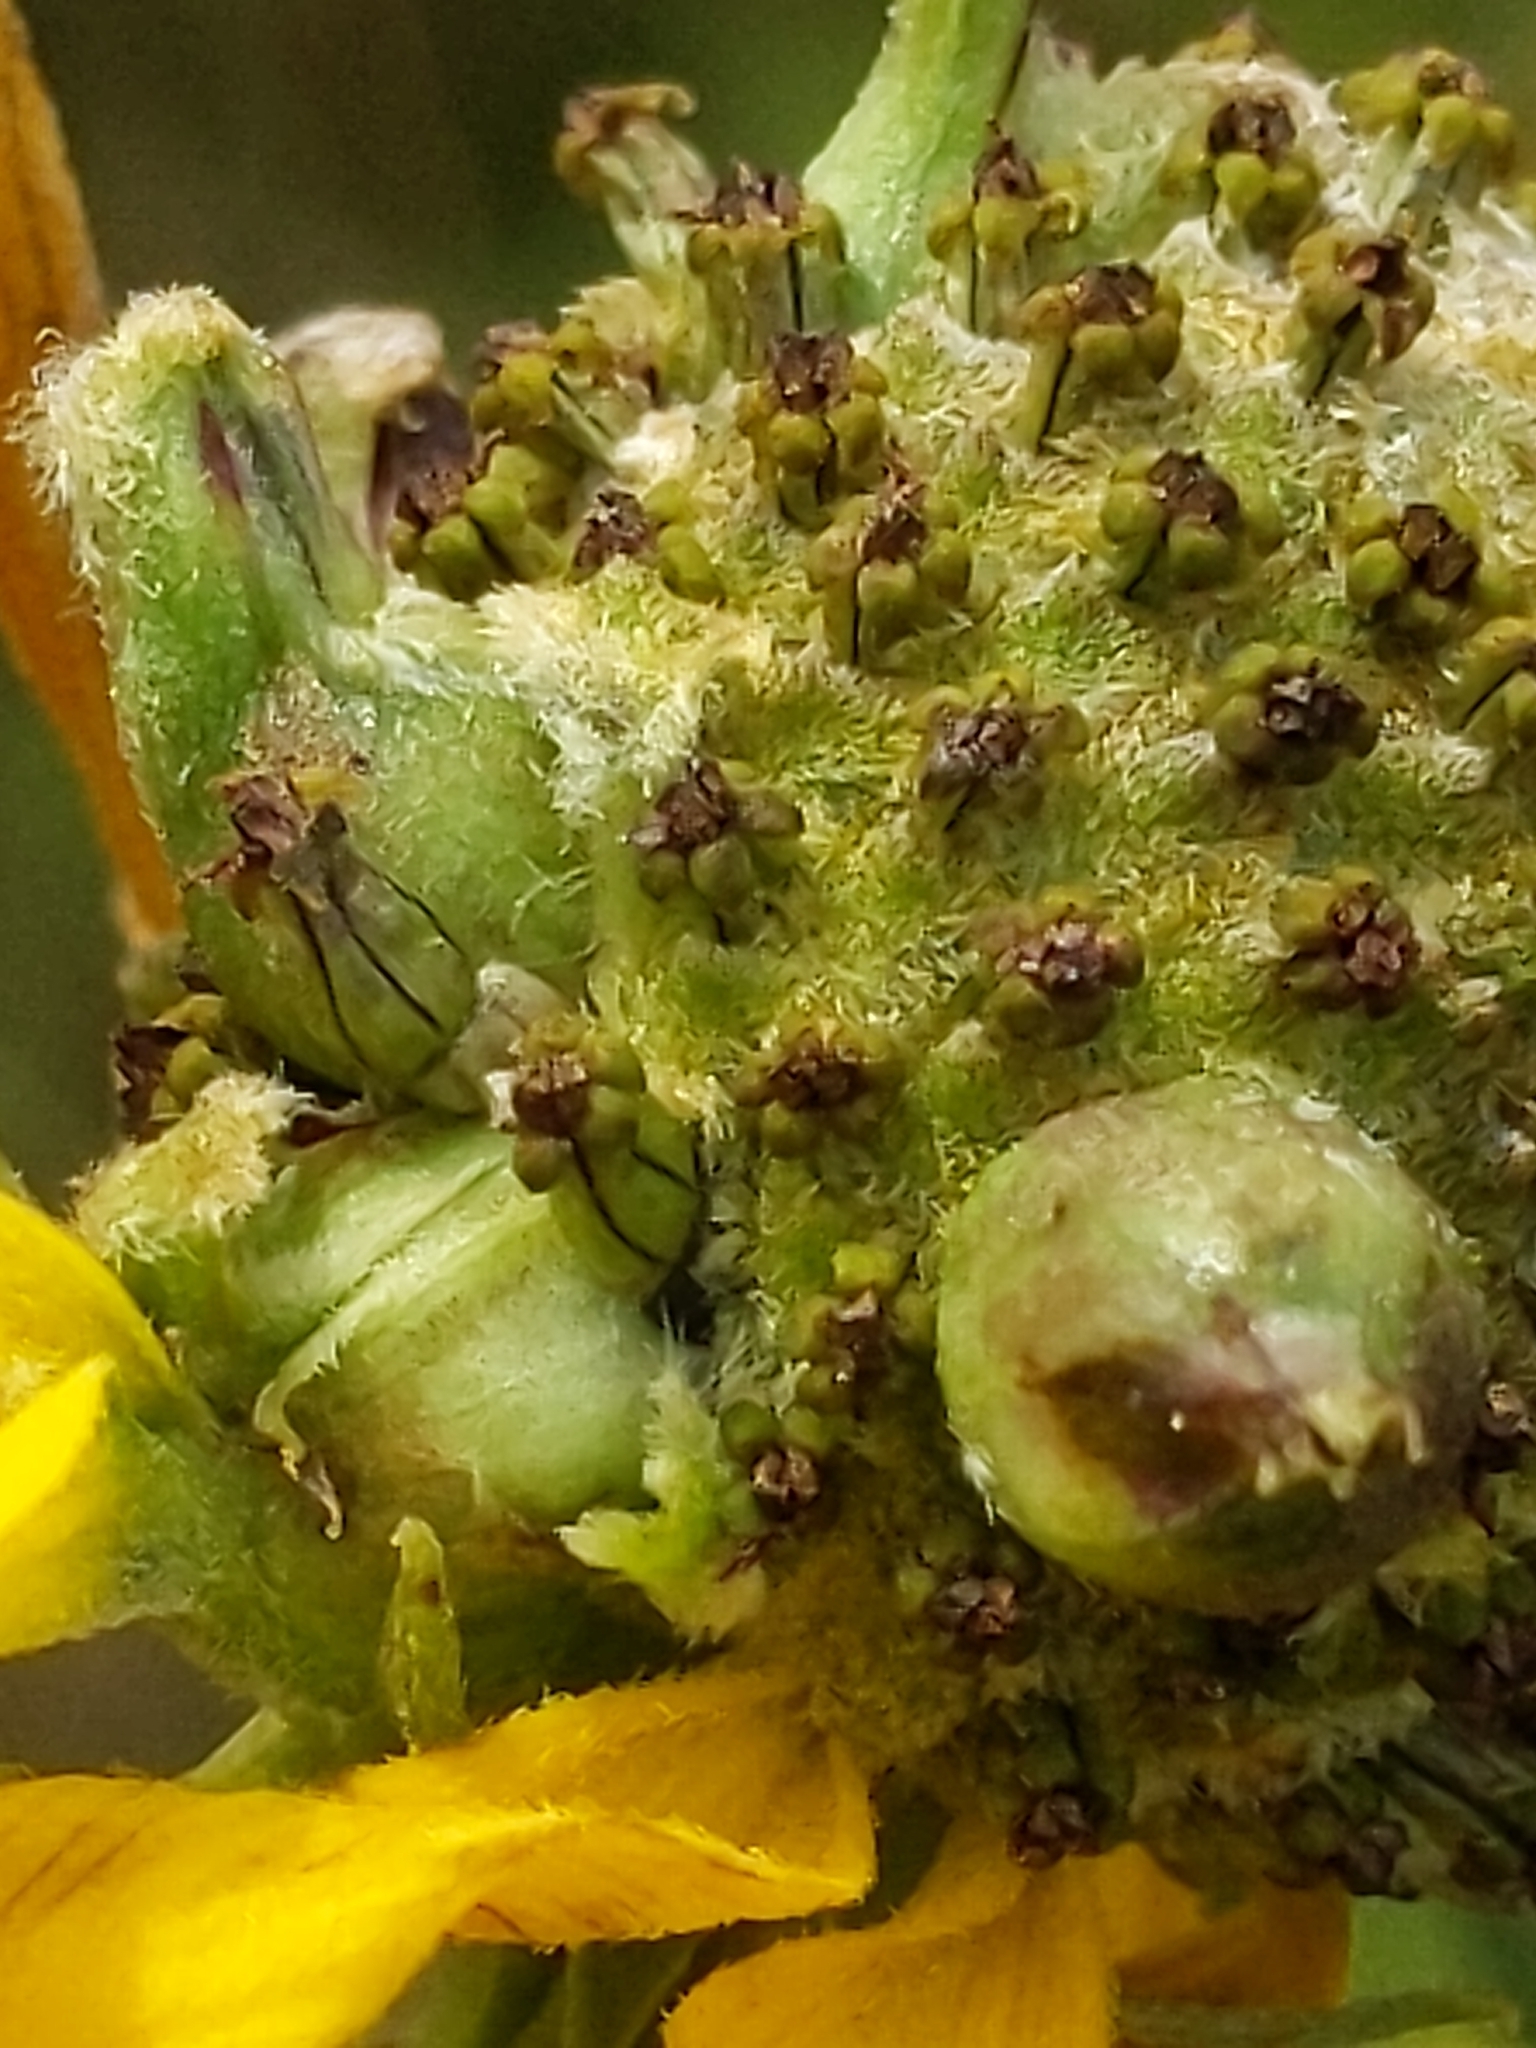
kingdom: Animalia
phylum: Arthropoda
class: Insecta
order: Diptera
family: Cecidomyiidae
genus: Asphondylia
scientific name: Asphondylia ratibidae
